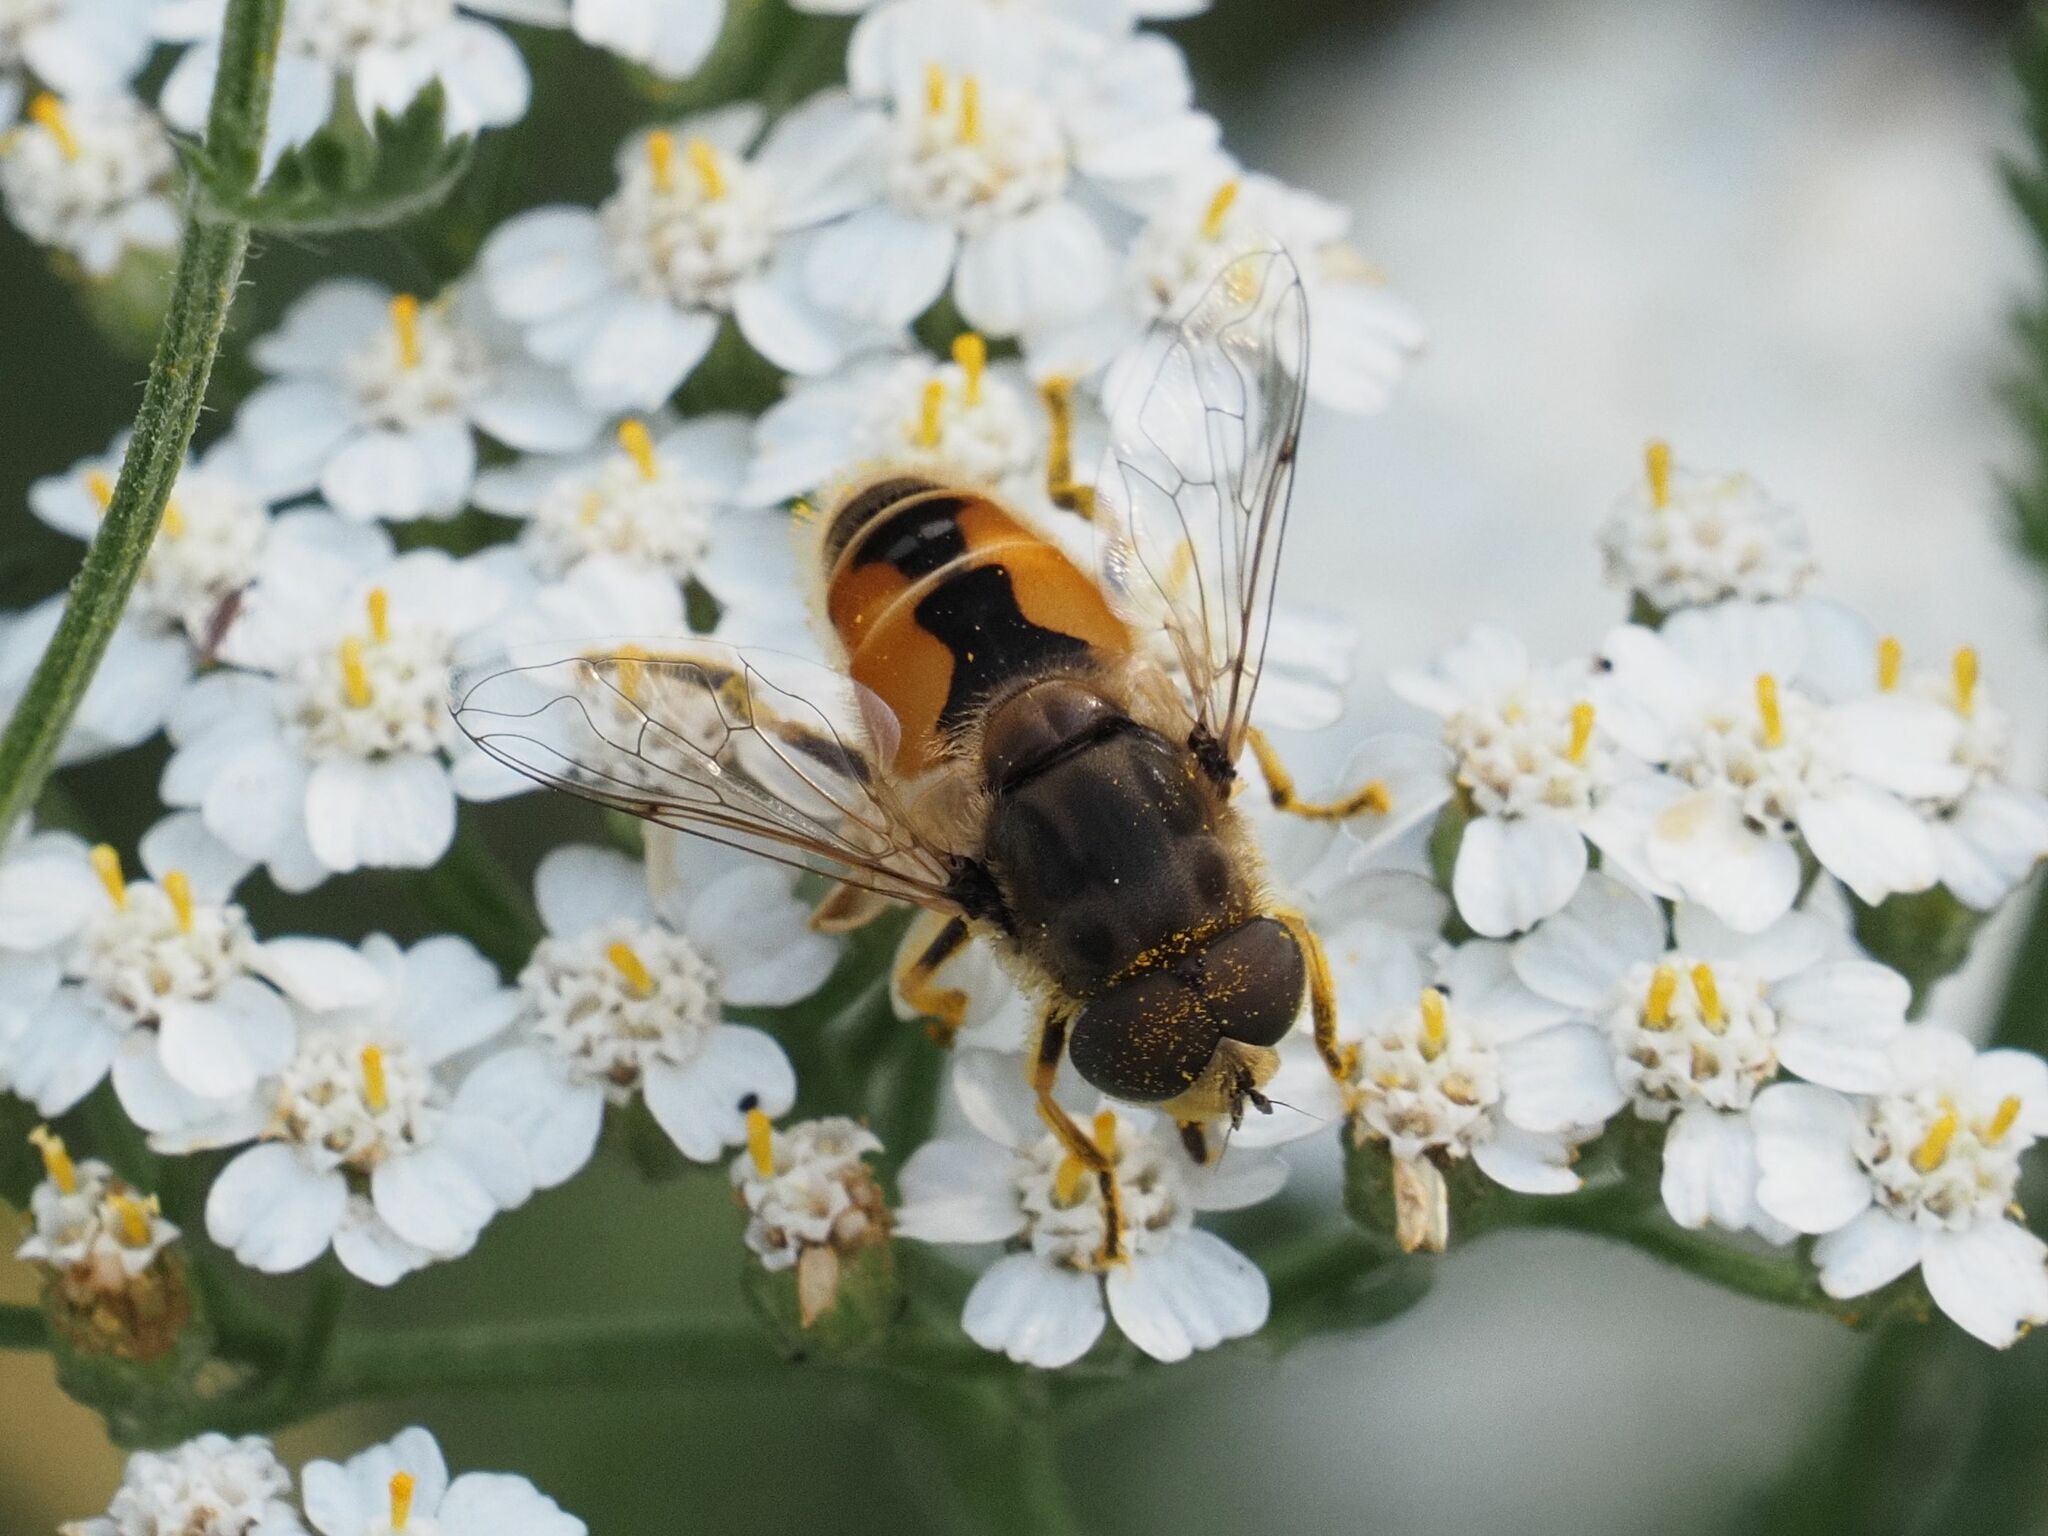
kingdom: Animalia
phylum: Arthropoda
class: Insecta
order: Diptera
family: Syrphidae
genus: Eristalis
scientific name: Eristalis arbustorum
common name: Hover fly
